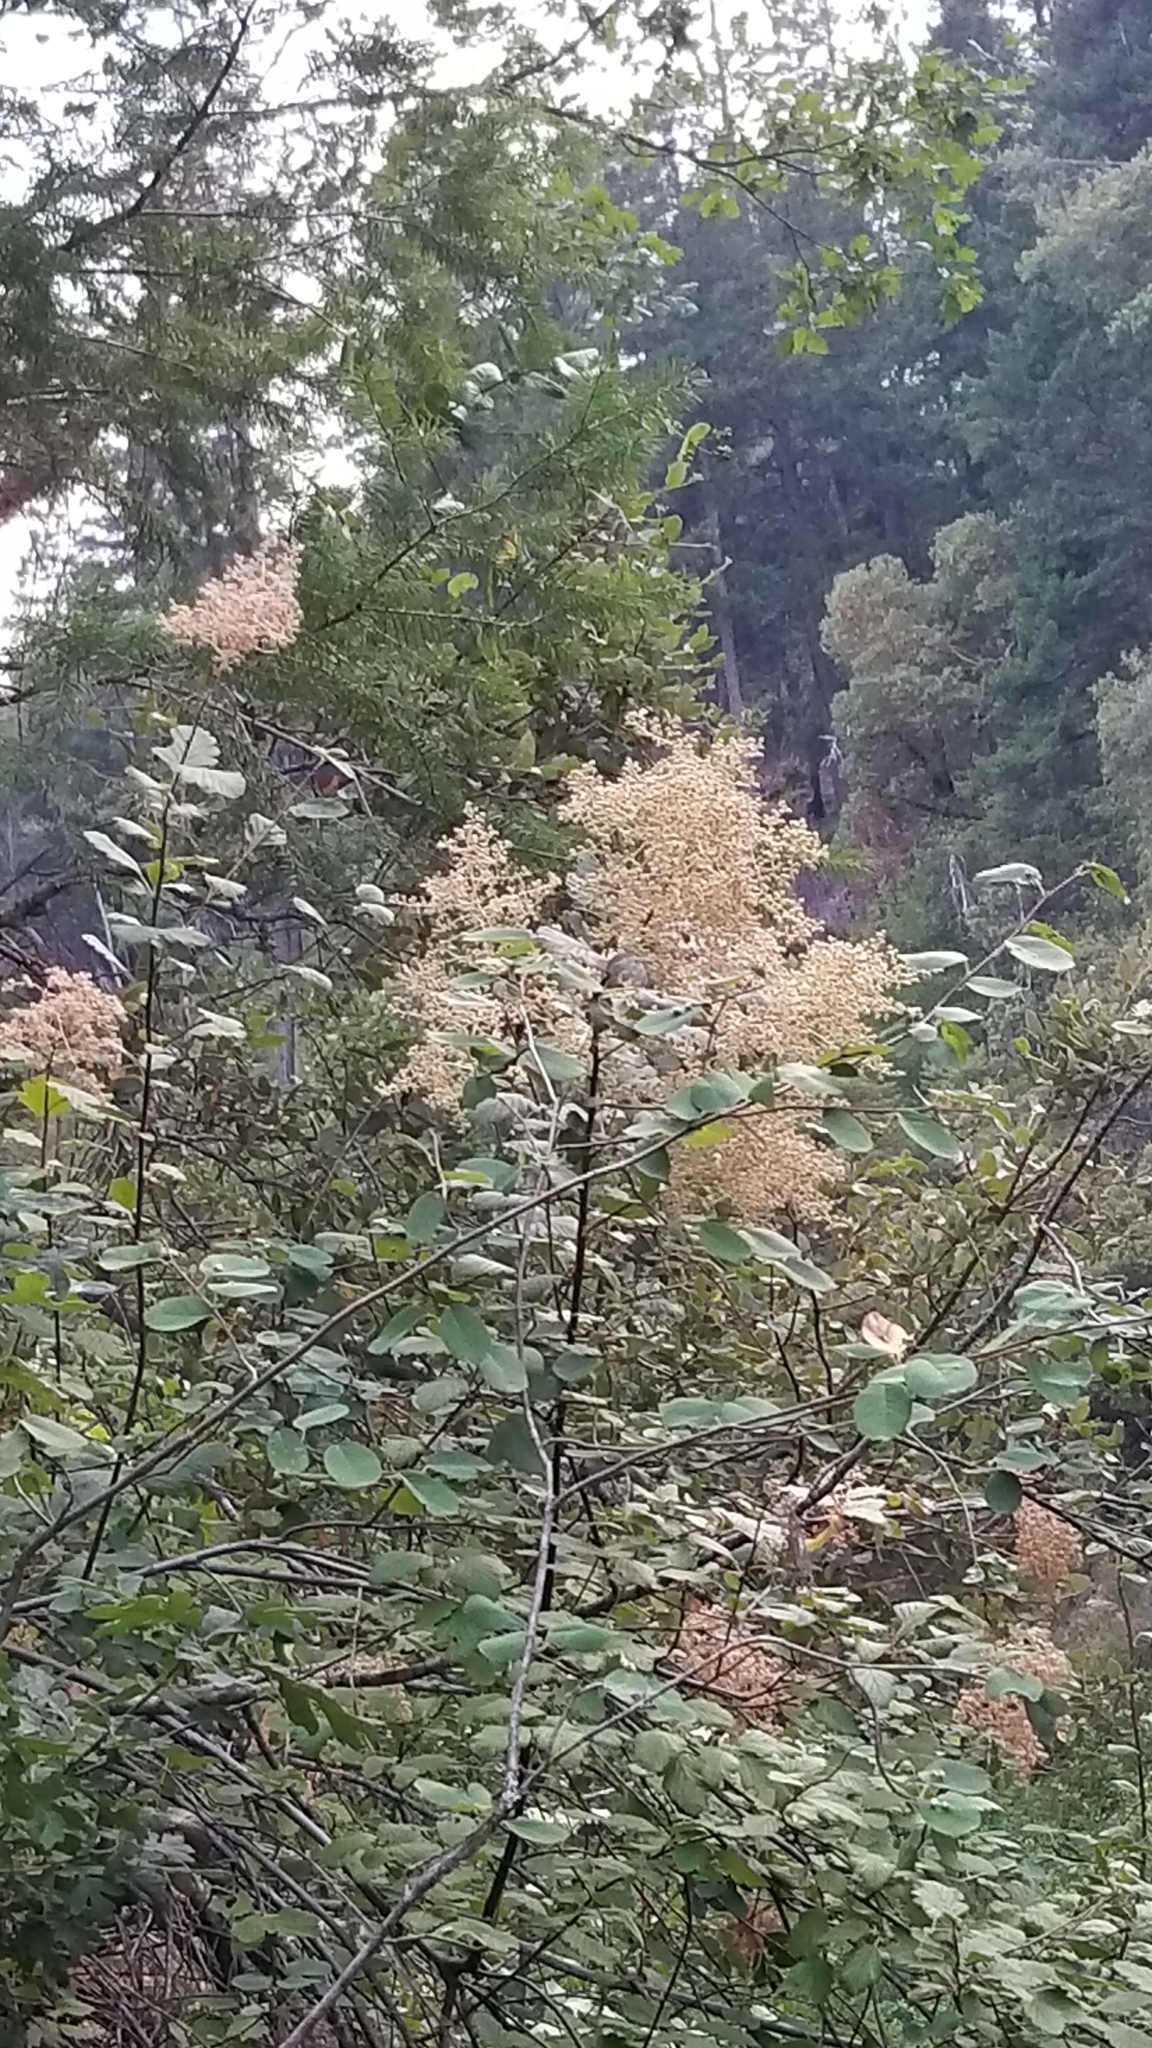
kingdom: Plantae
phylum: Tracheophyta
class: Magnoliopsida
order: Rosales
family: Rosaceae
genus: Holodiscus
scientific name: Holodiscus discolor
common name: Oceanspray
